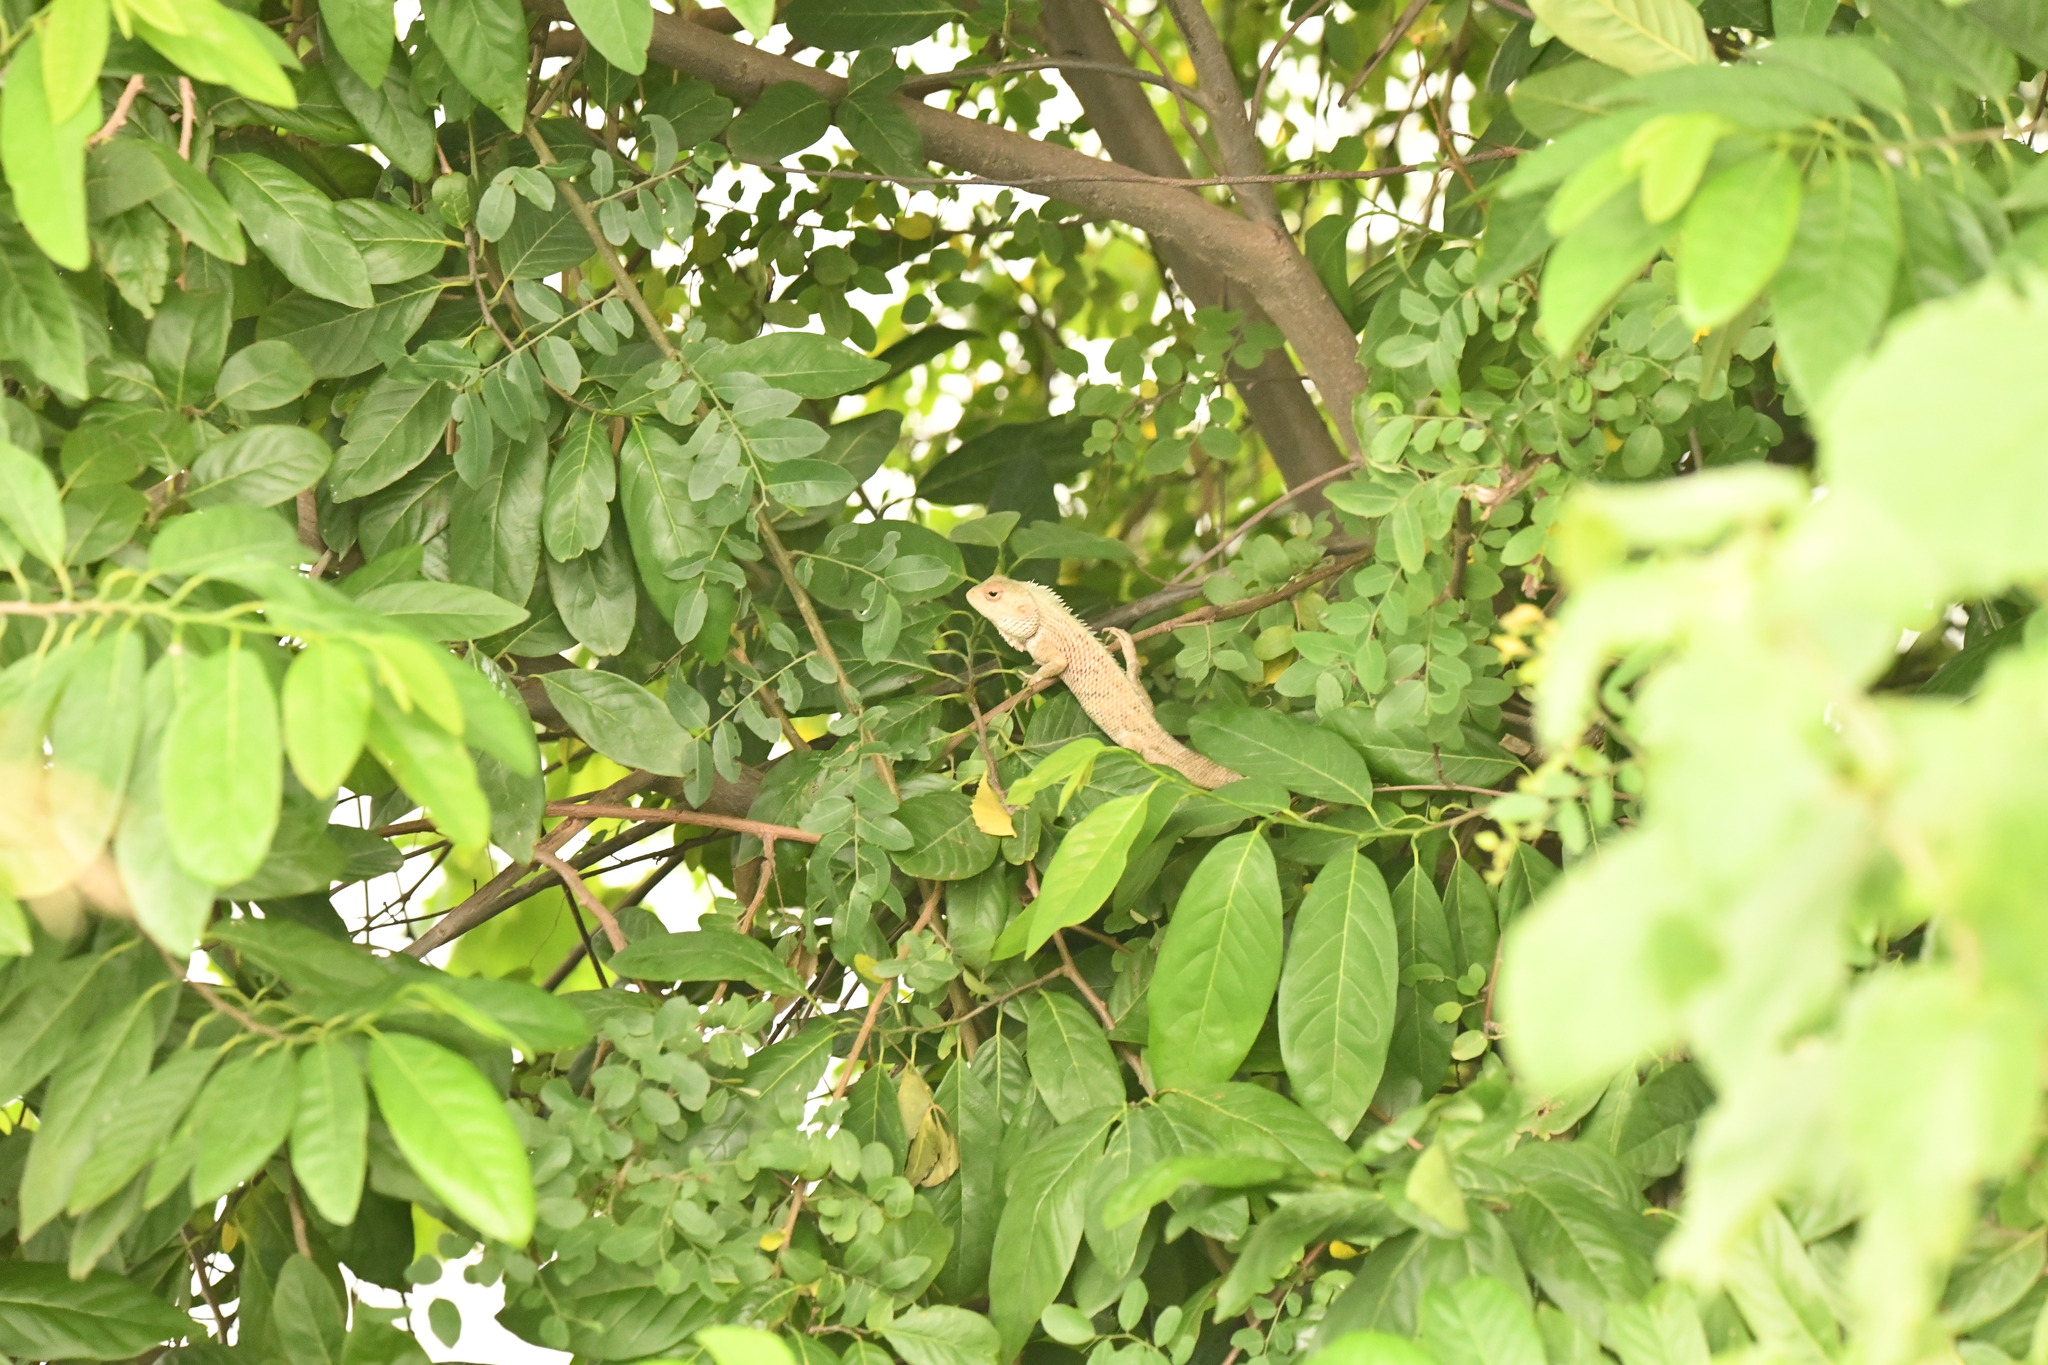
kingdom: Animalia
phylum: Chordata
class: Squamata
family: Agamidae
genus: Calotes
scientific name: Calotes versicolor
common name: Oriental garden lizard
